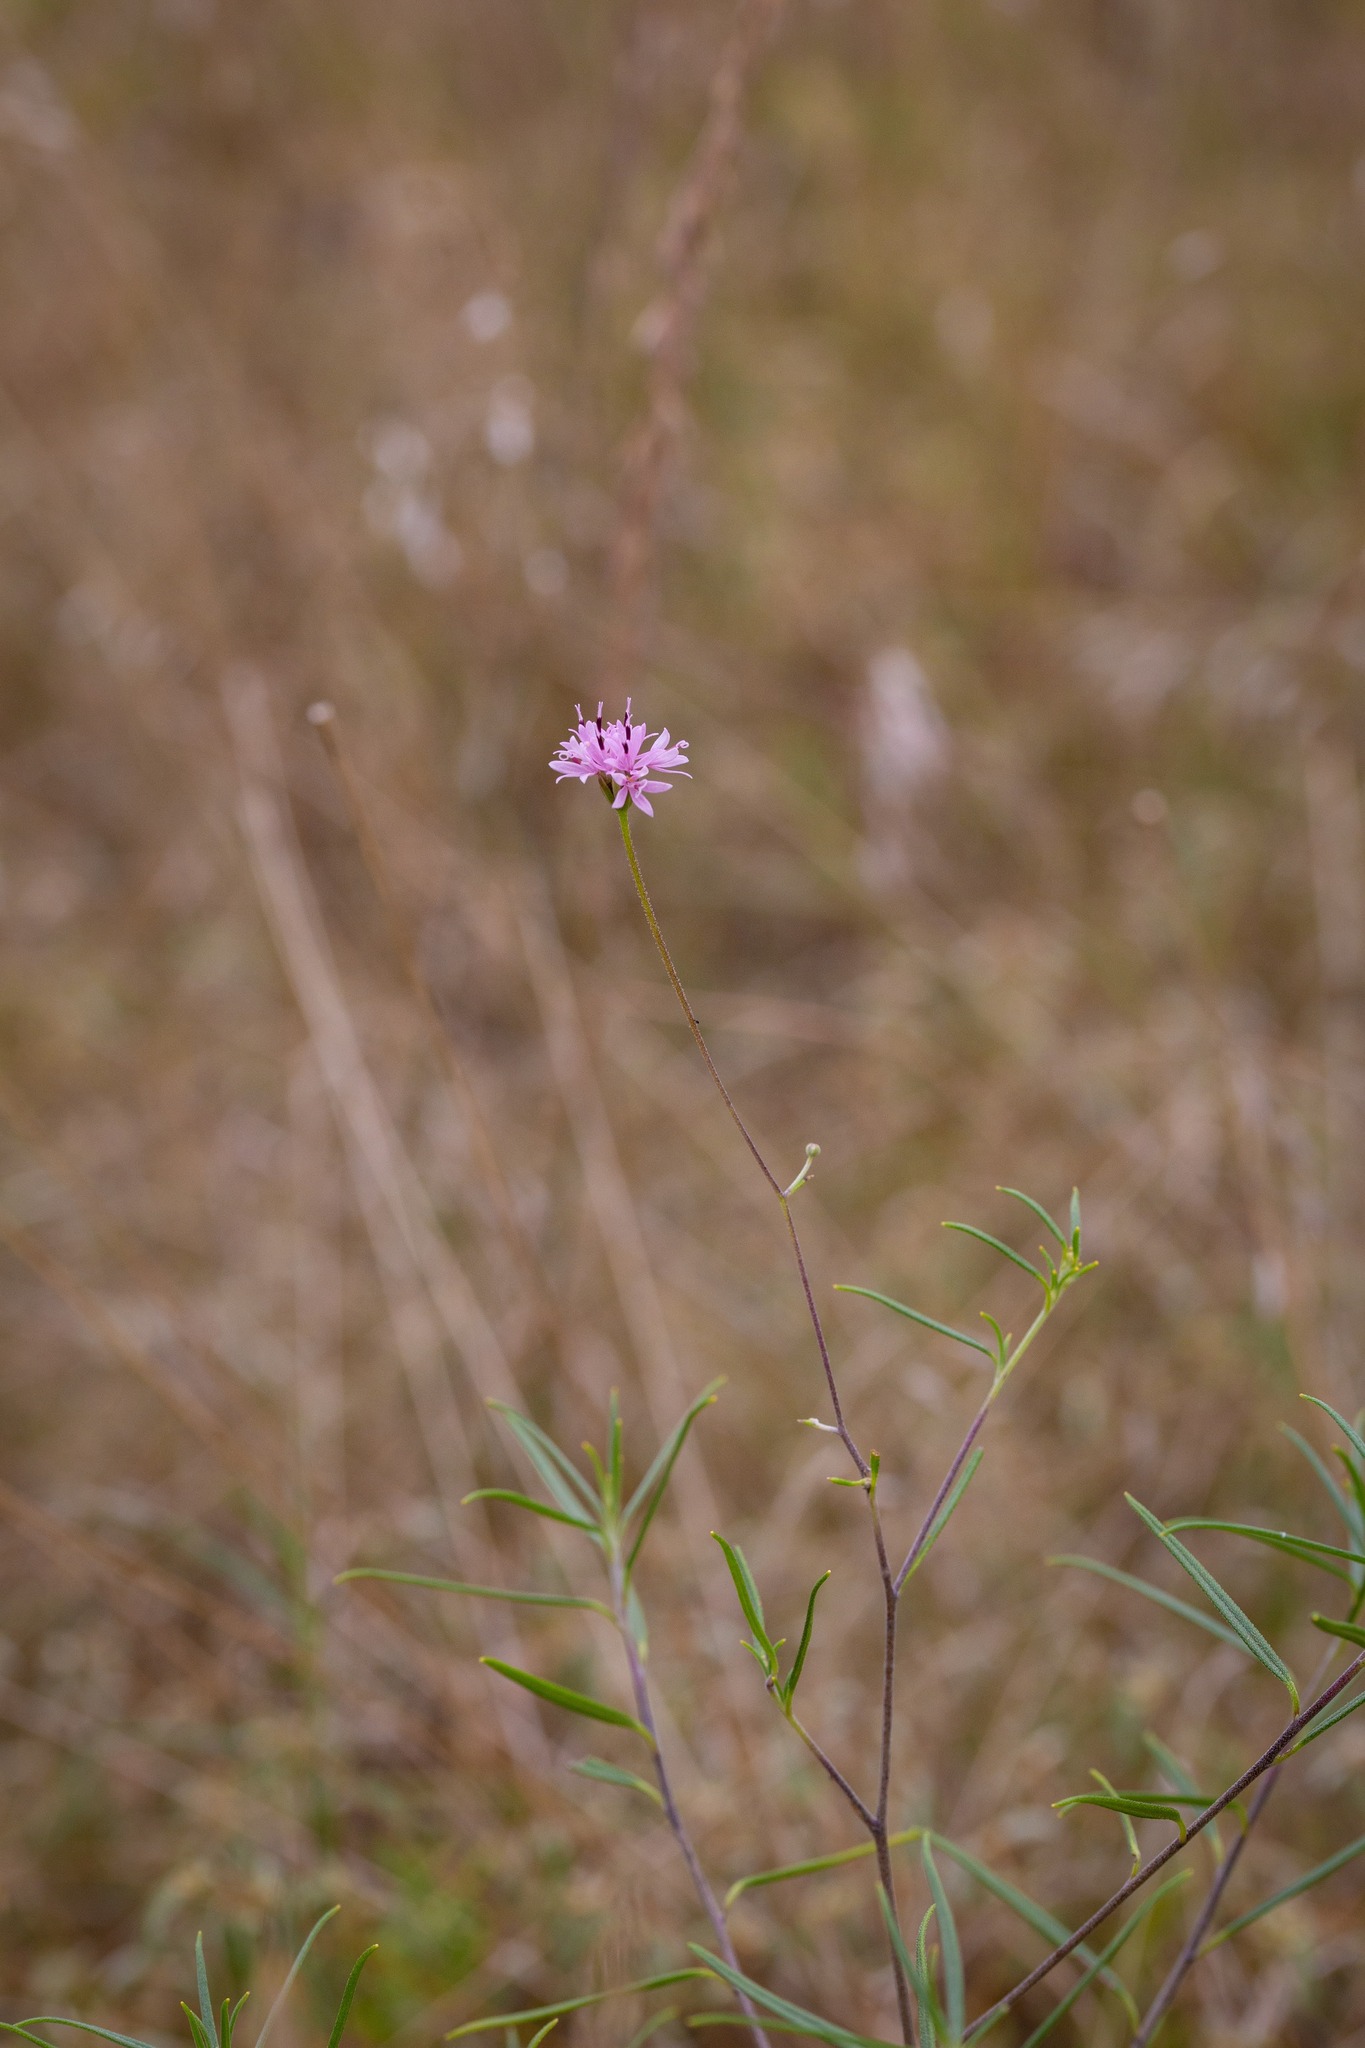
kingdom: Plantae
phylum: Tracheophyta
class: Magnoliopsida
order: Asterales
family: Asteraceae
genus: Palafoxia
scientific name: Palafoxia callosa
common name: Small palafox
